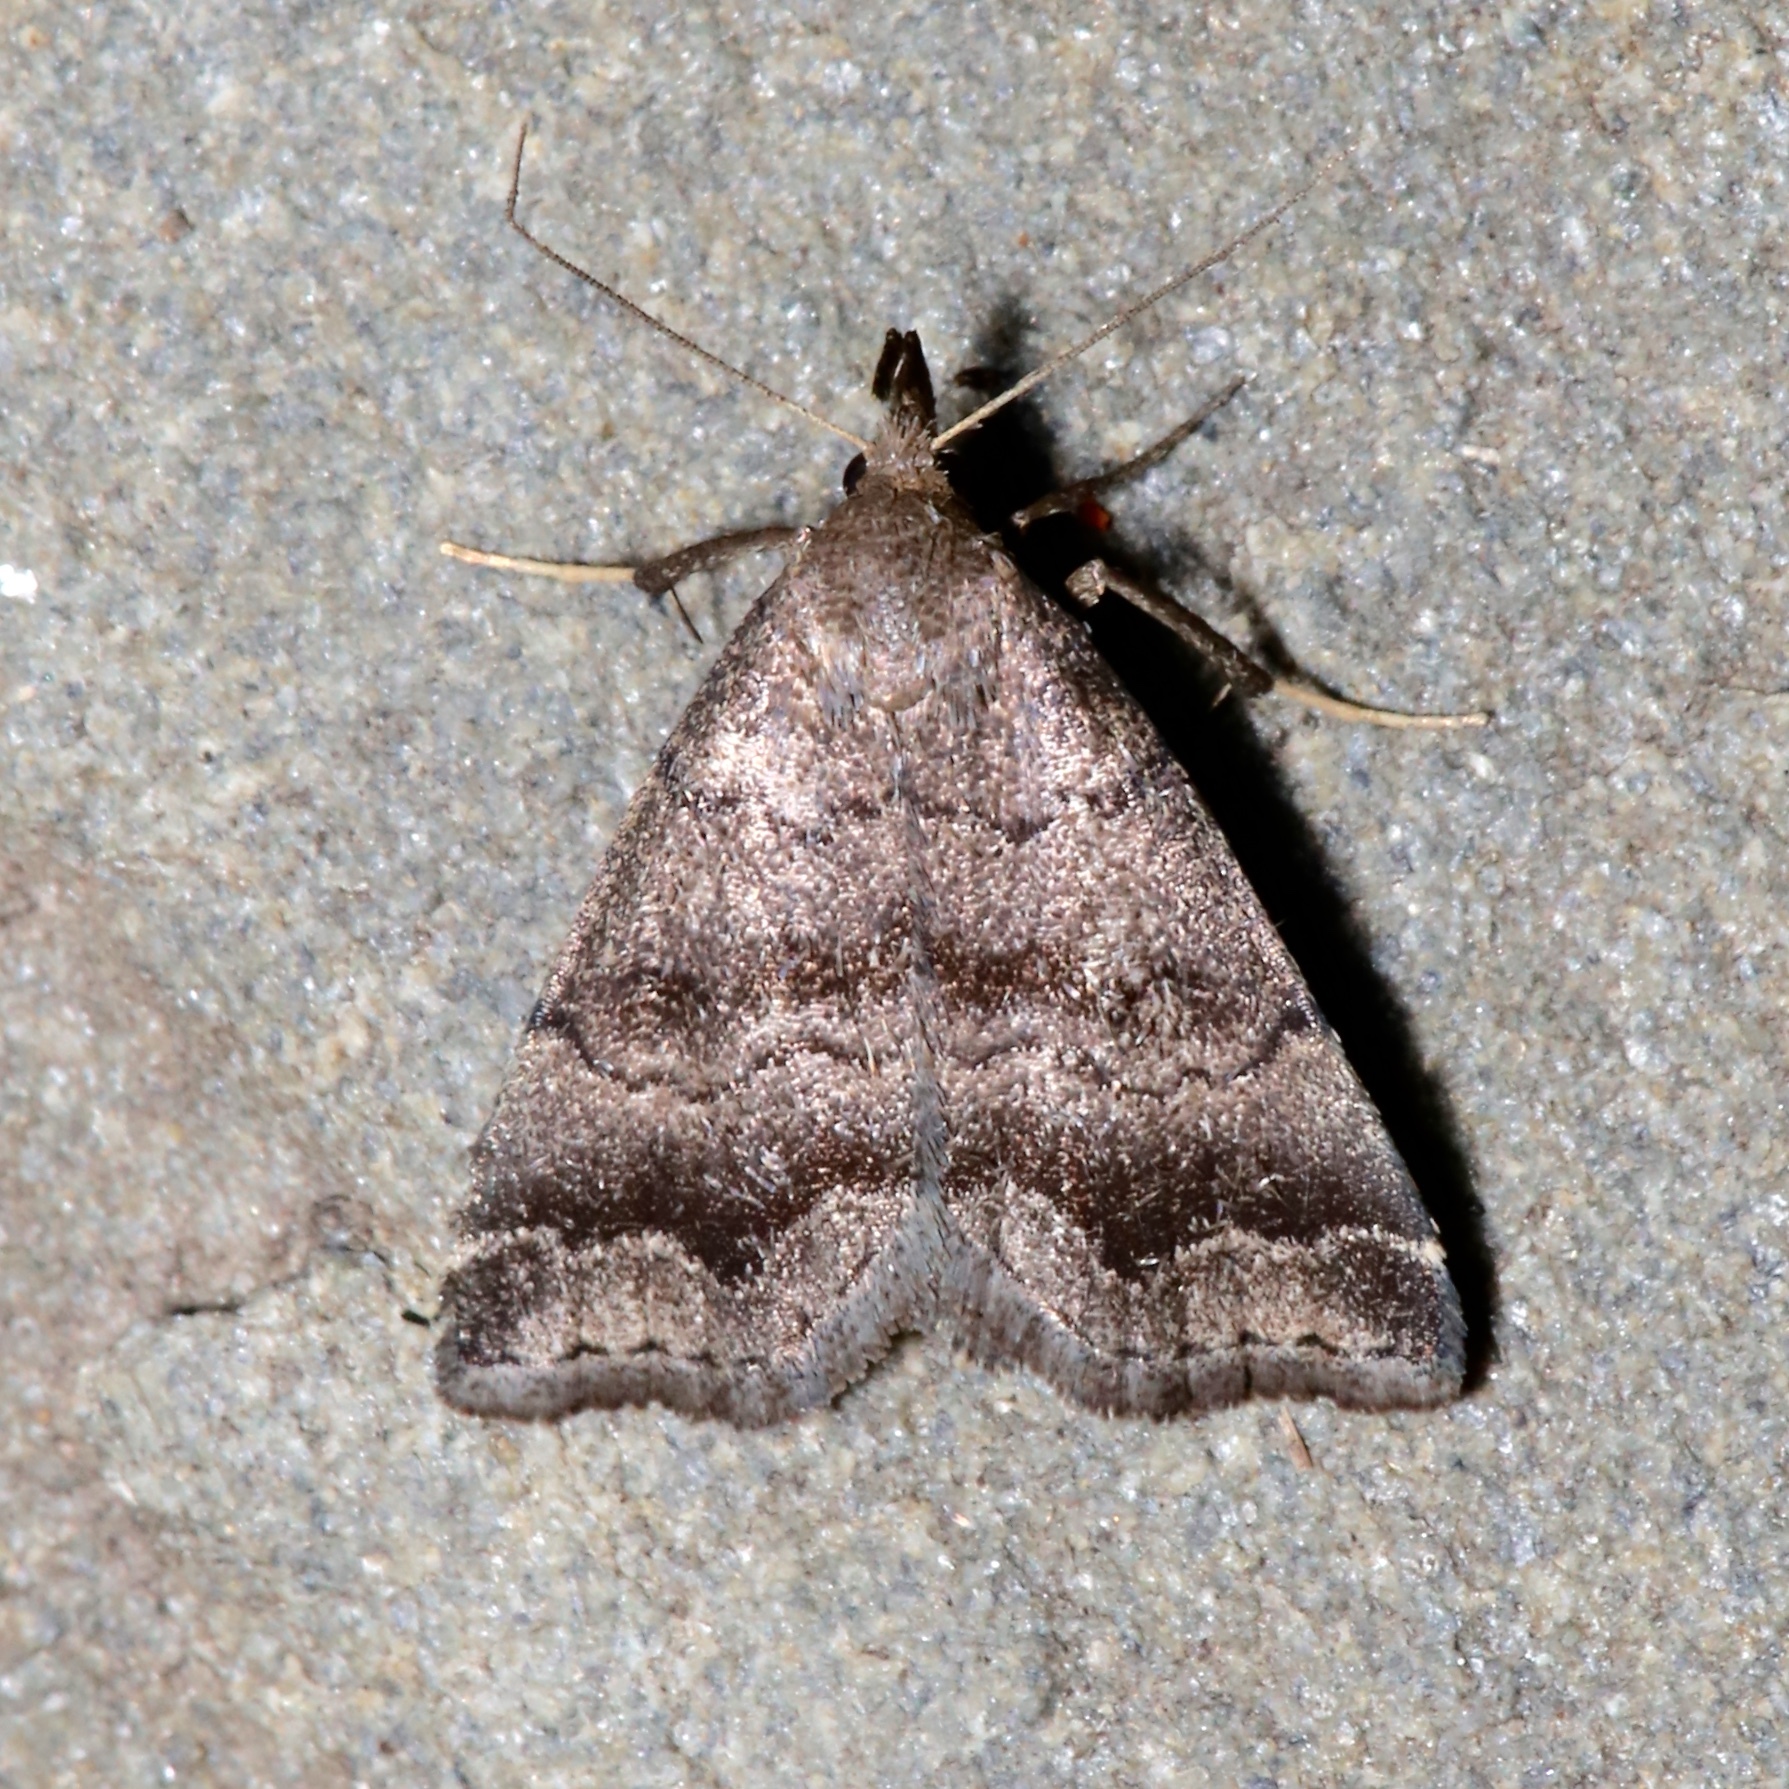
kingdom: Animalia
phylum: Arthropoda
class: Insecta
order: Lepidoptera
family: Erebidae
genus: Phalaenostola
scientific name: Phalaenostola larentioides
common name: Black-banded owlet
